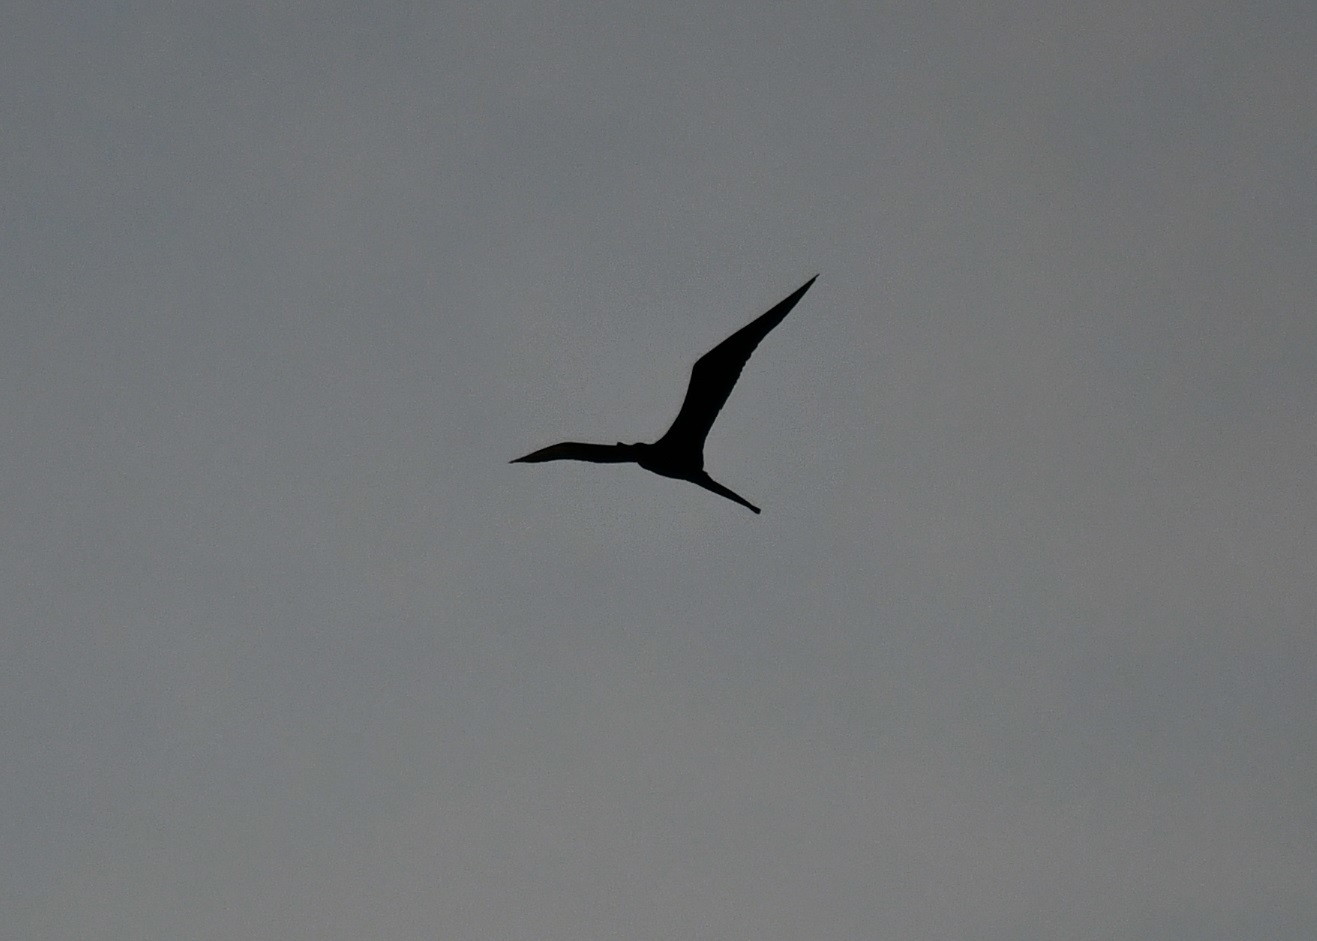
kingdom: Animalia
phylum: Chordata
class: Aves
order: Suliformes
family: Fregatidae
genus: Fregata
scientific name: Fregata magnificens
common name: Magnificent frigatebird
